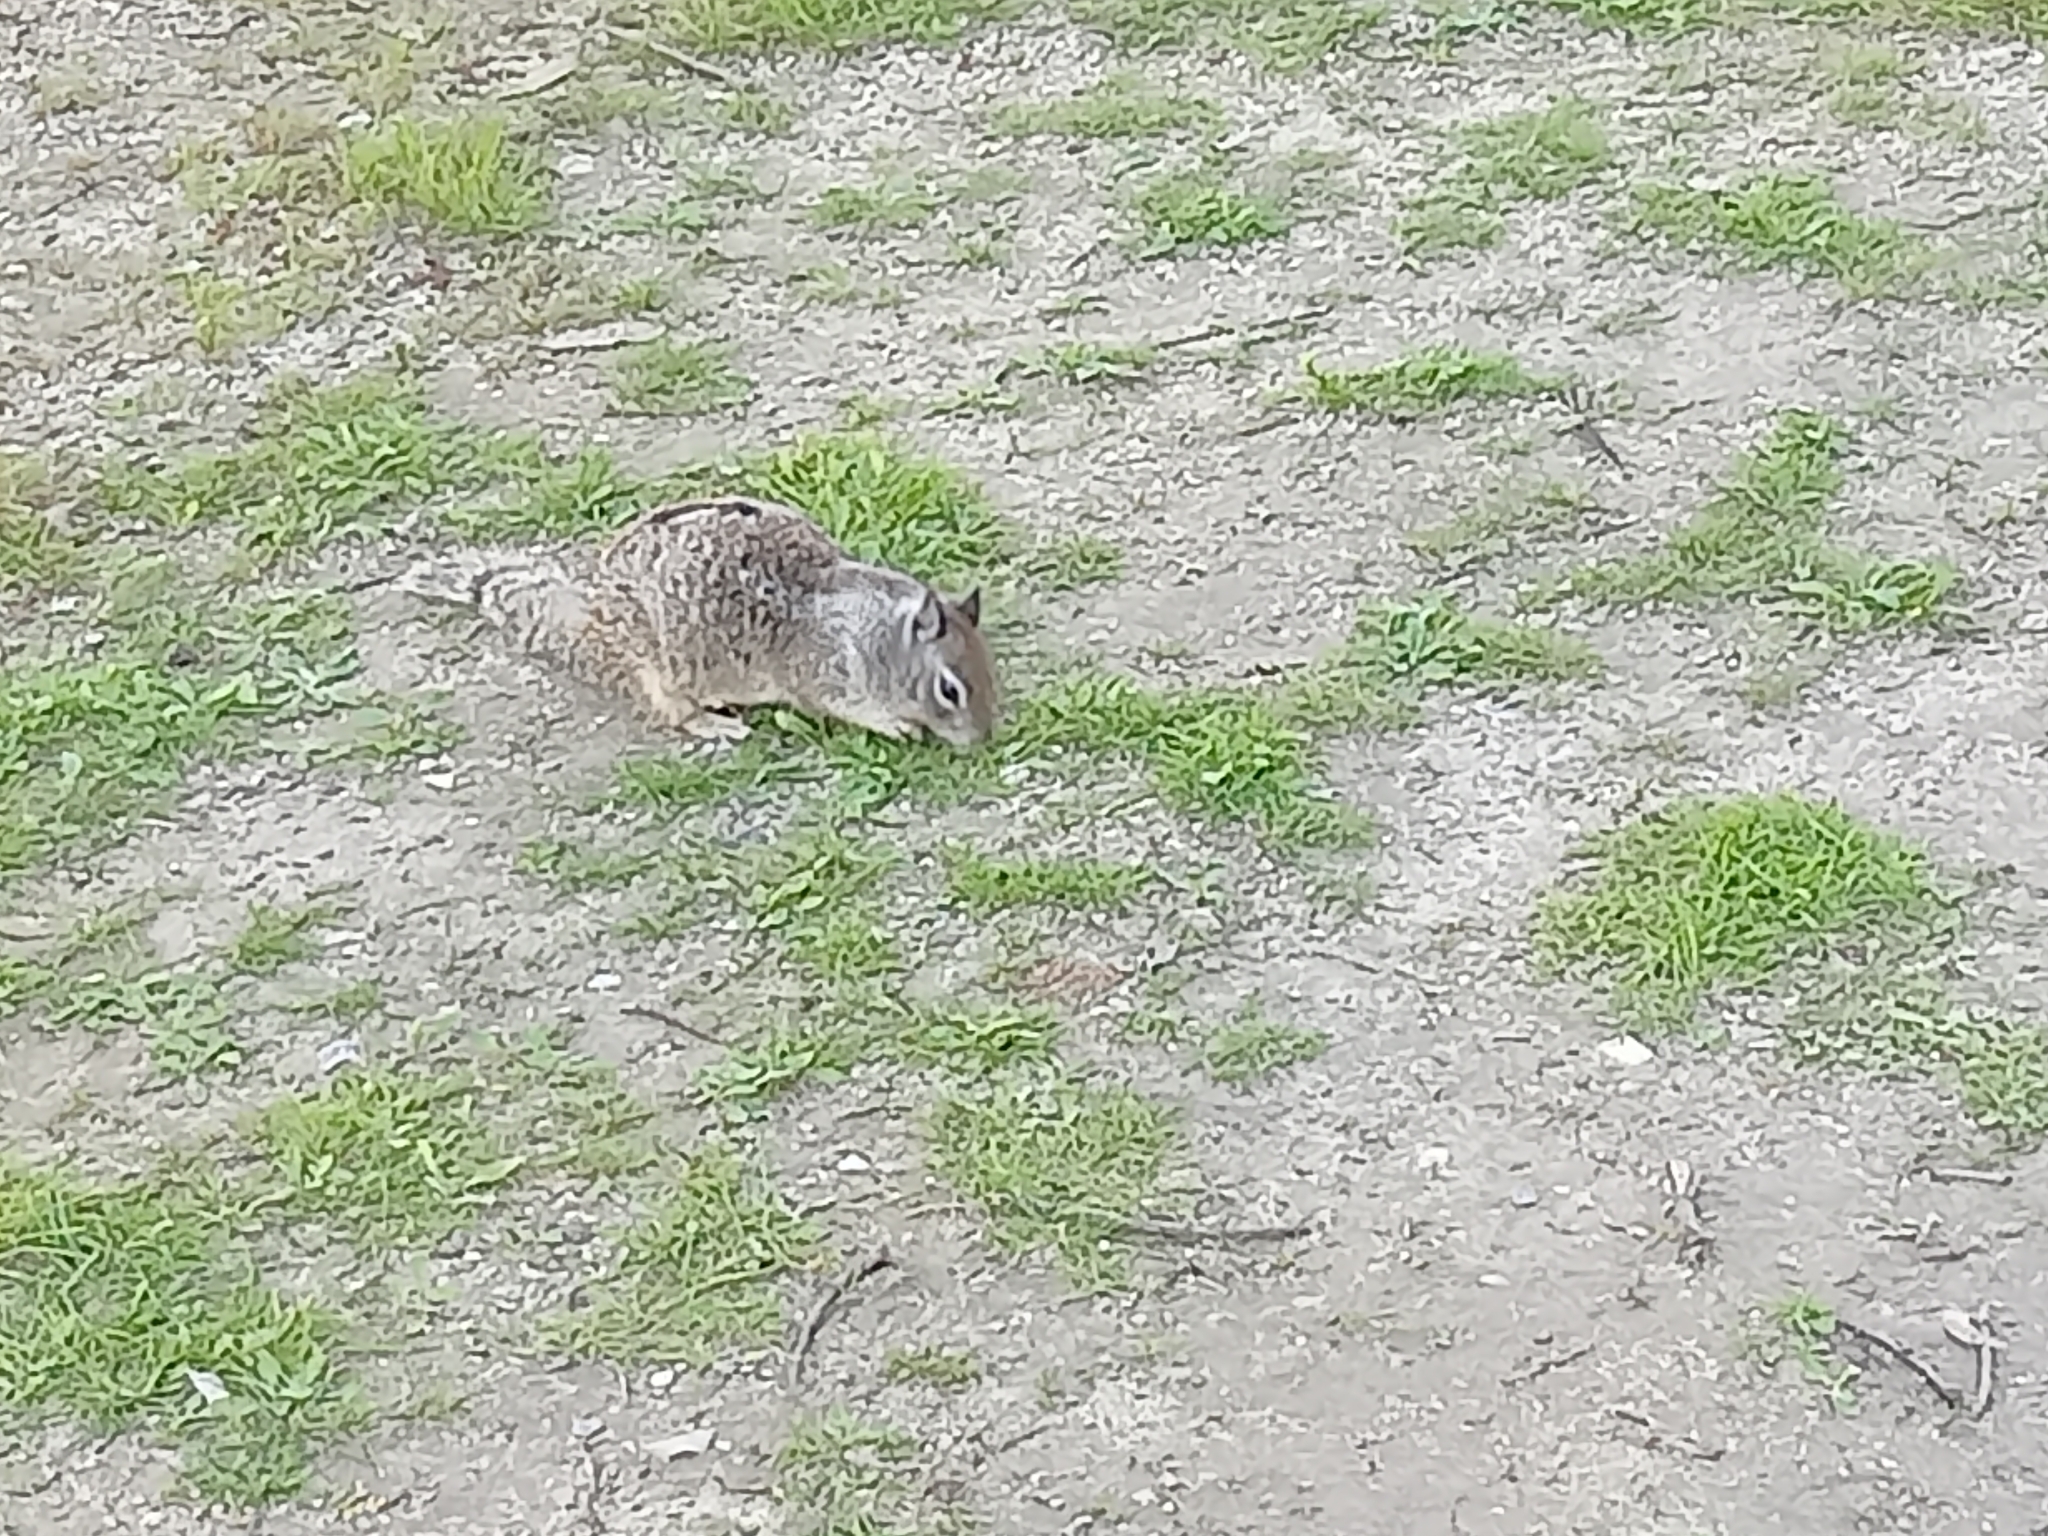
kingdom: Animalia
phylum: Chordata
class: Mammalia
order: Rodentia
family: Sciuridae
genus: Otospermophilus
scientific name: Otospermophilus beecheyi
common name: California ground squirrel
